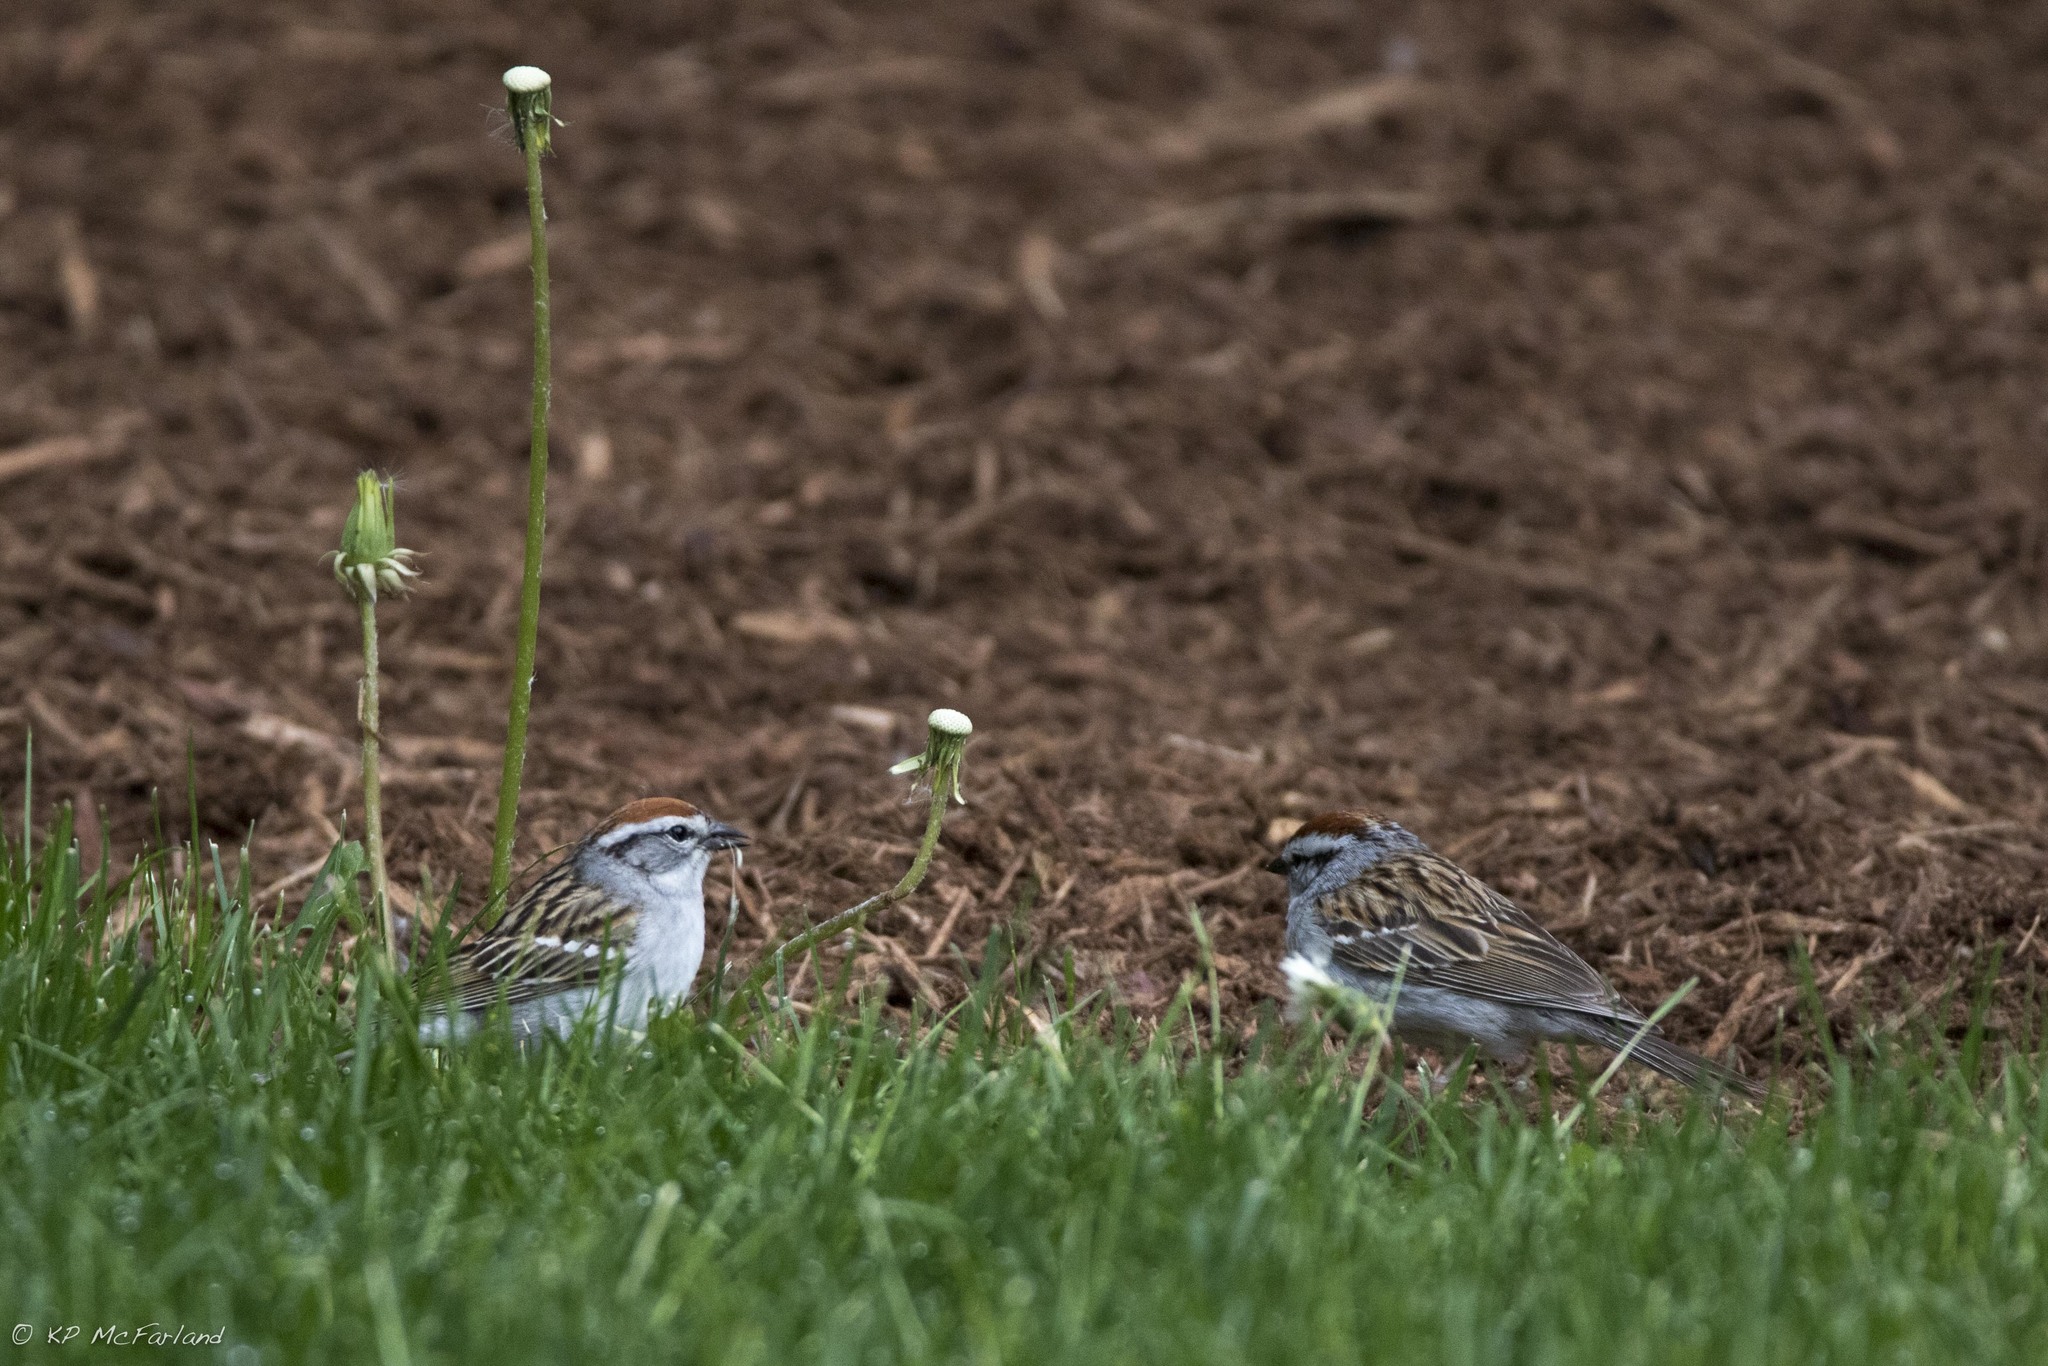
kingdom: Animalia
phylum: Chordata
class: Aves
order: Passeriformes
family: Passerellidae
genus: Spizella
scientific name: Spizella passerina
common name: Chipping sparrow
